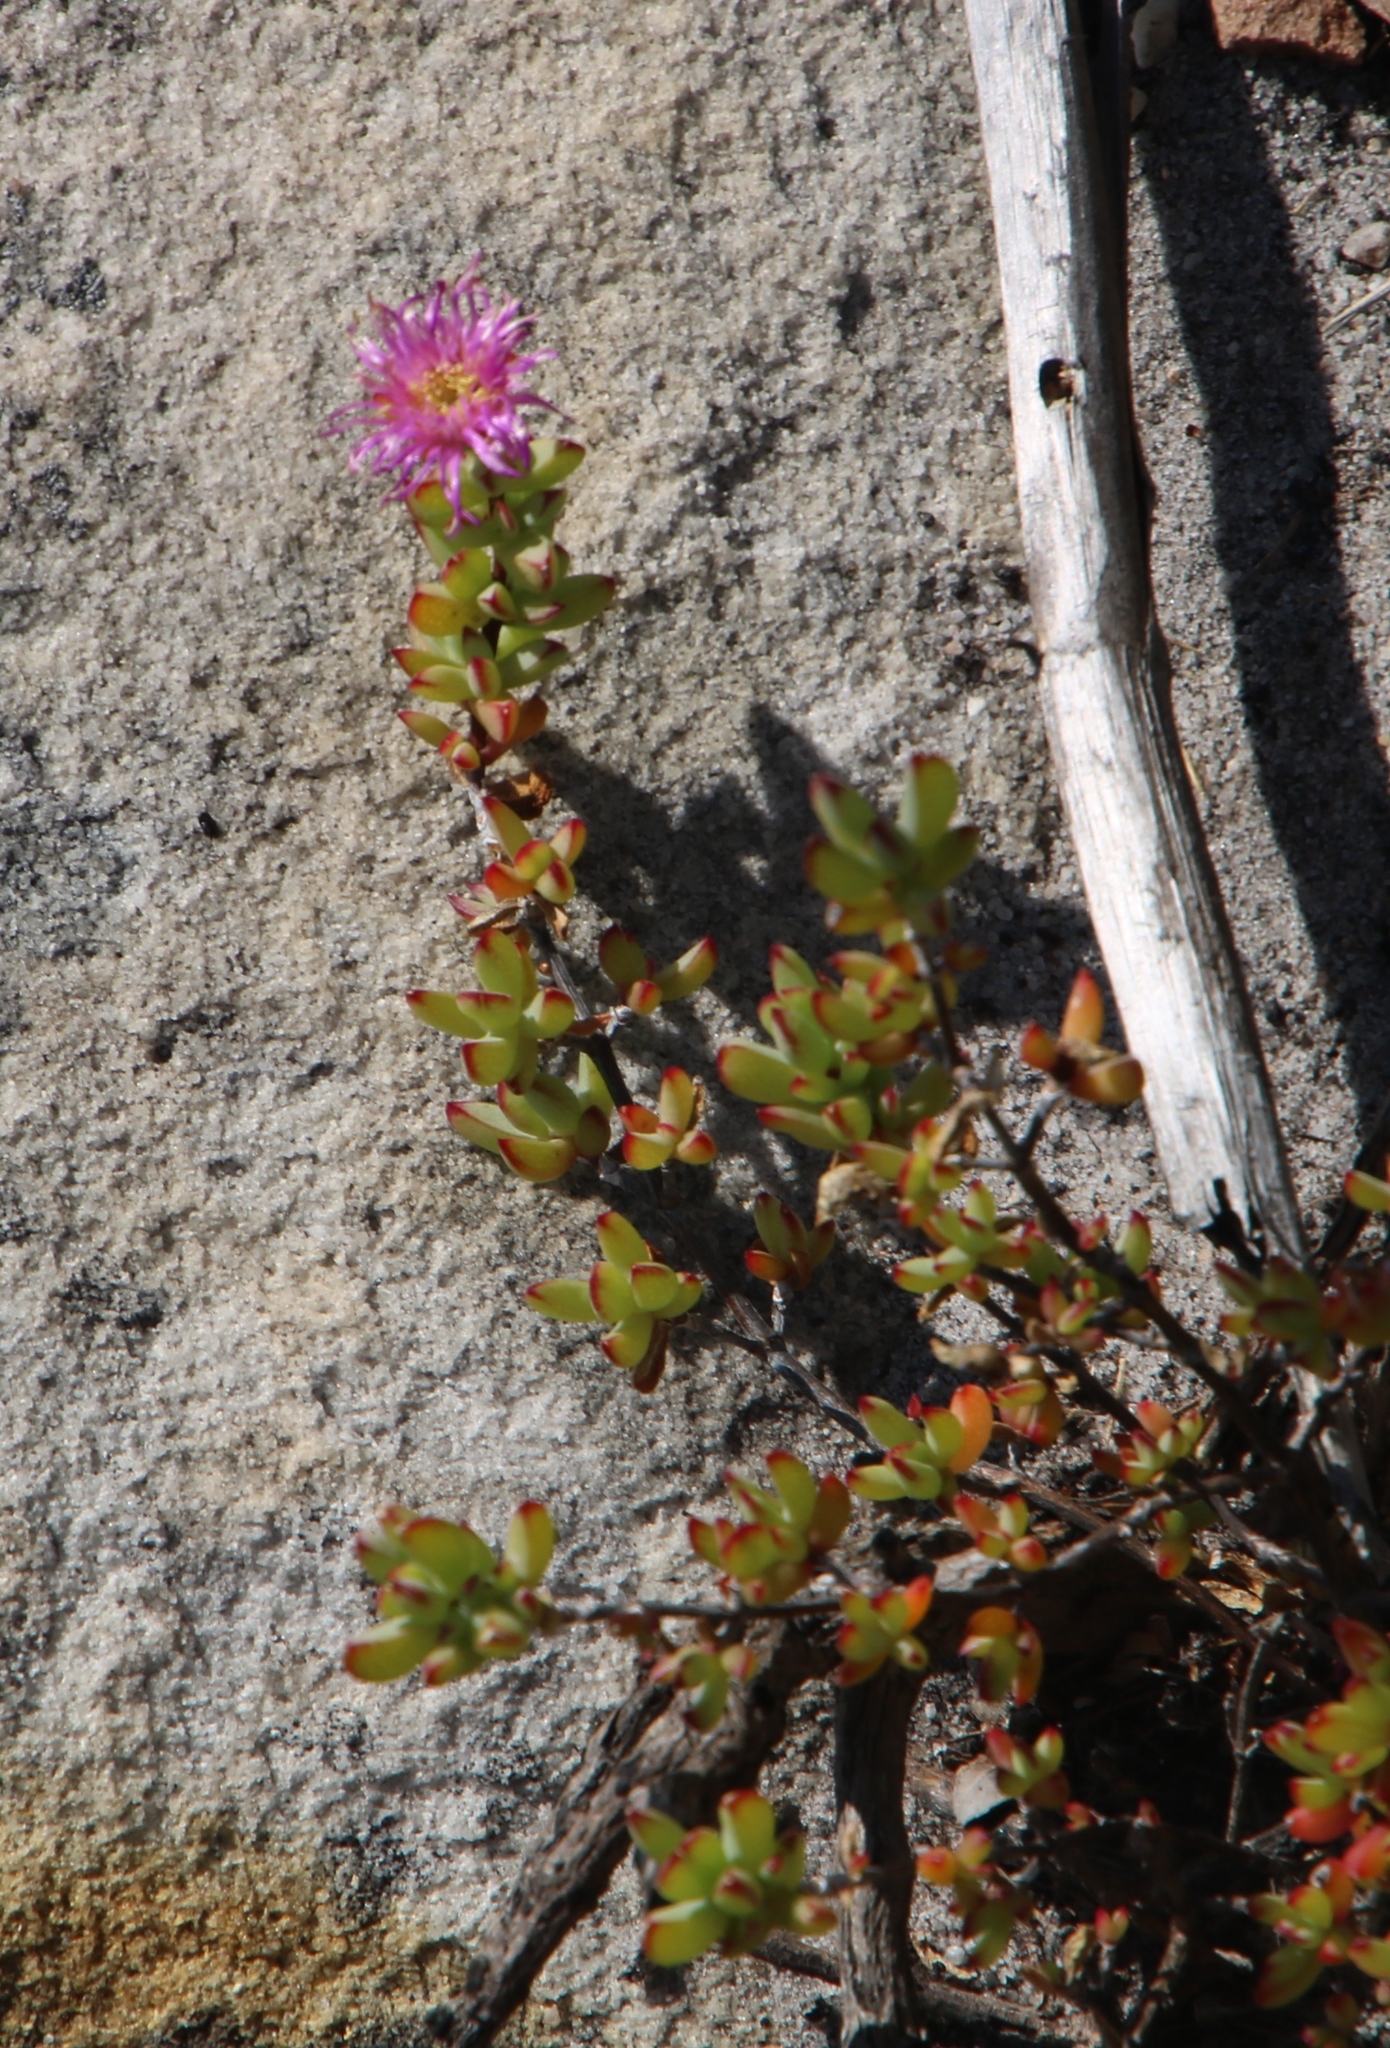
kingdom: Plantae
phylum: Tracheophyta
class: Magnoliopsida
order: Caryophyllales
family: Aizoaceae
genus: Oscularia
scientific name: Oscularia falciformis
